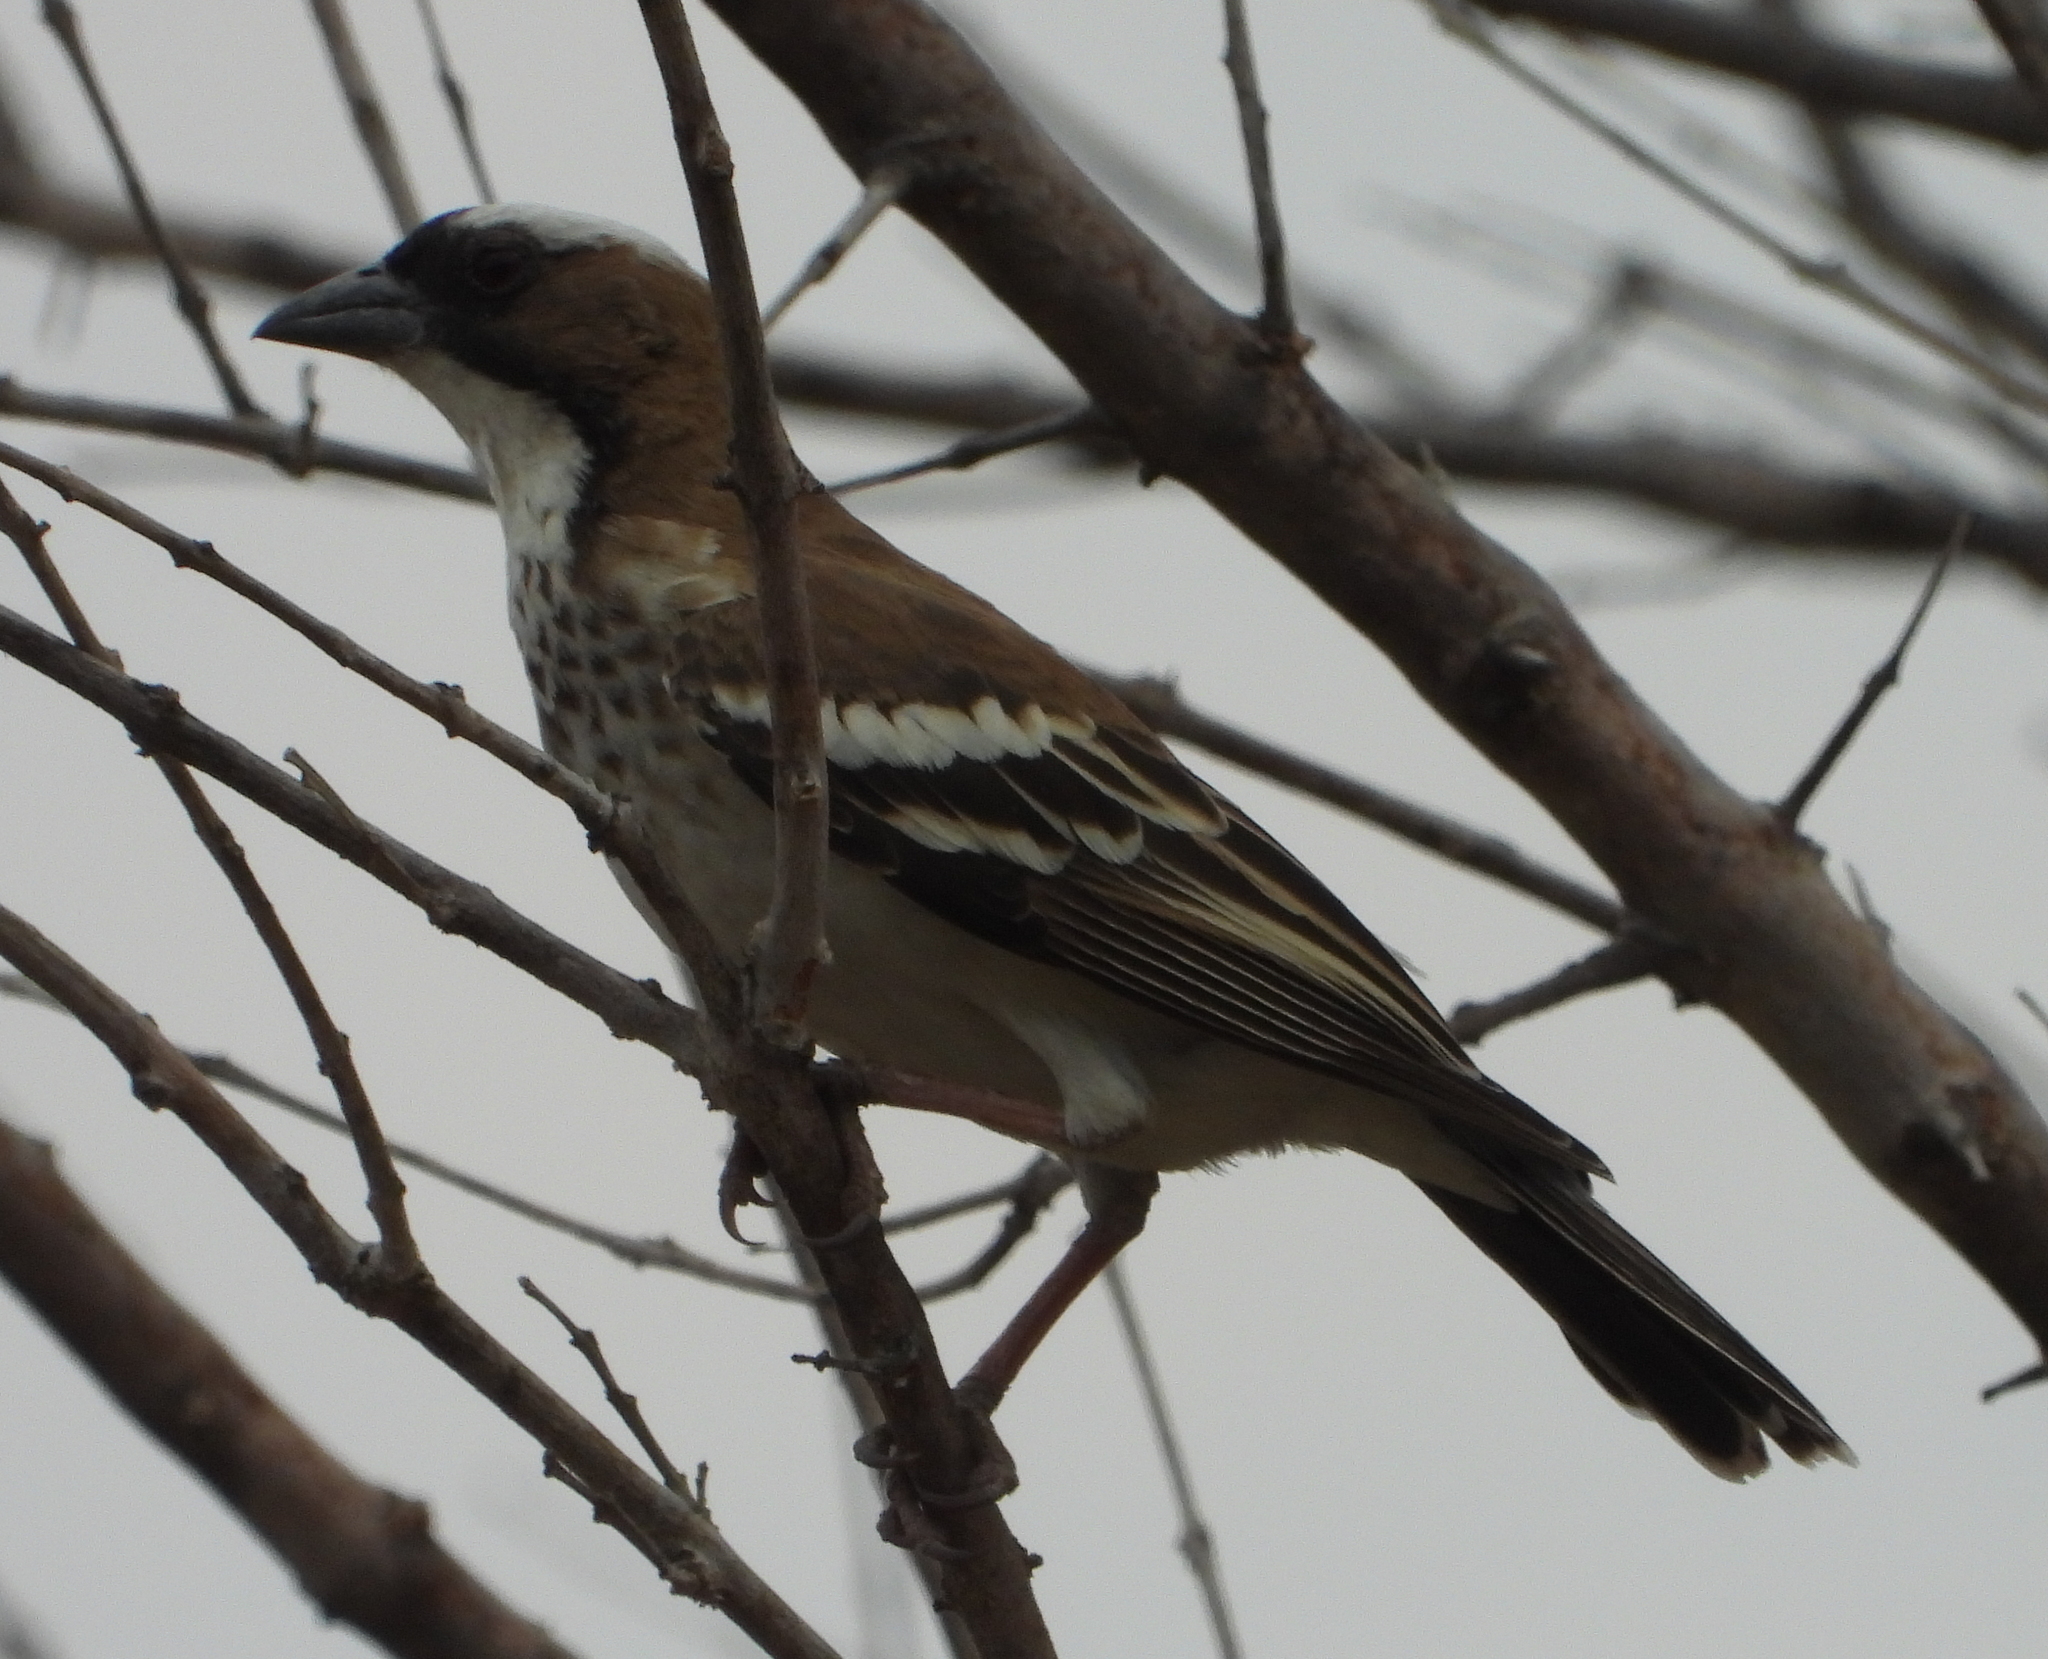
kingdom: Animalia
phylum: Chordata
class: Aves
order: Passeriformes
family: Passeridae
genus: Plocepasser
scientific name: Plocepasser mahali
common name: White-browed sparrow-weaver
